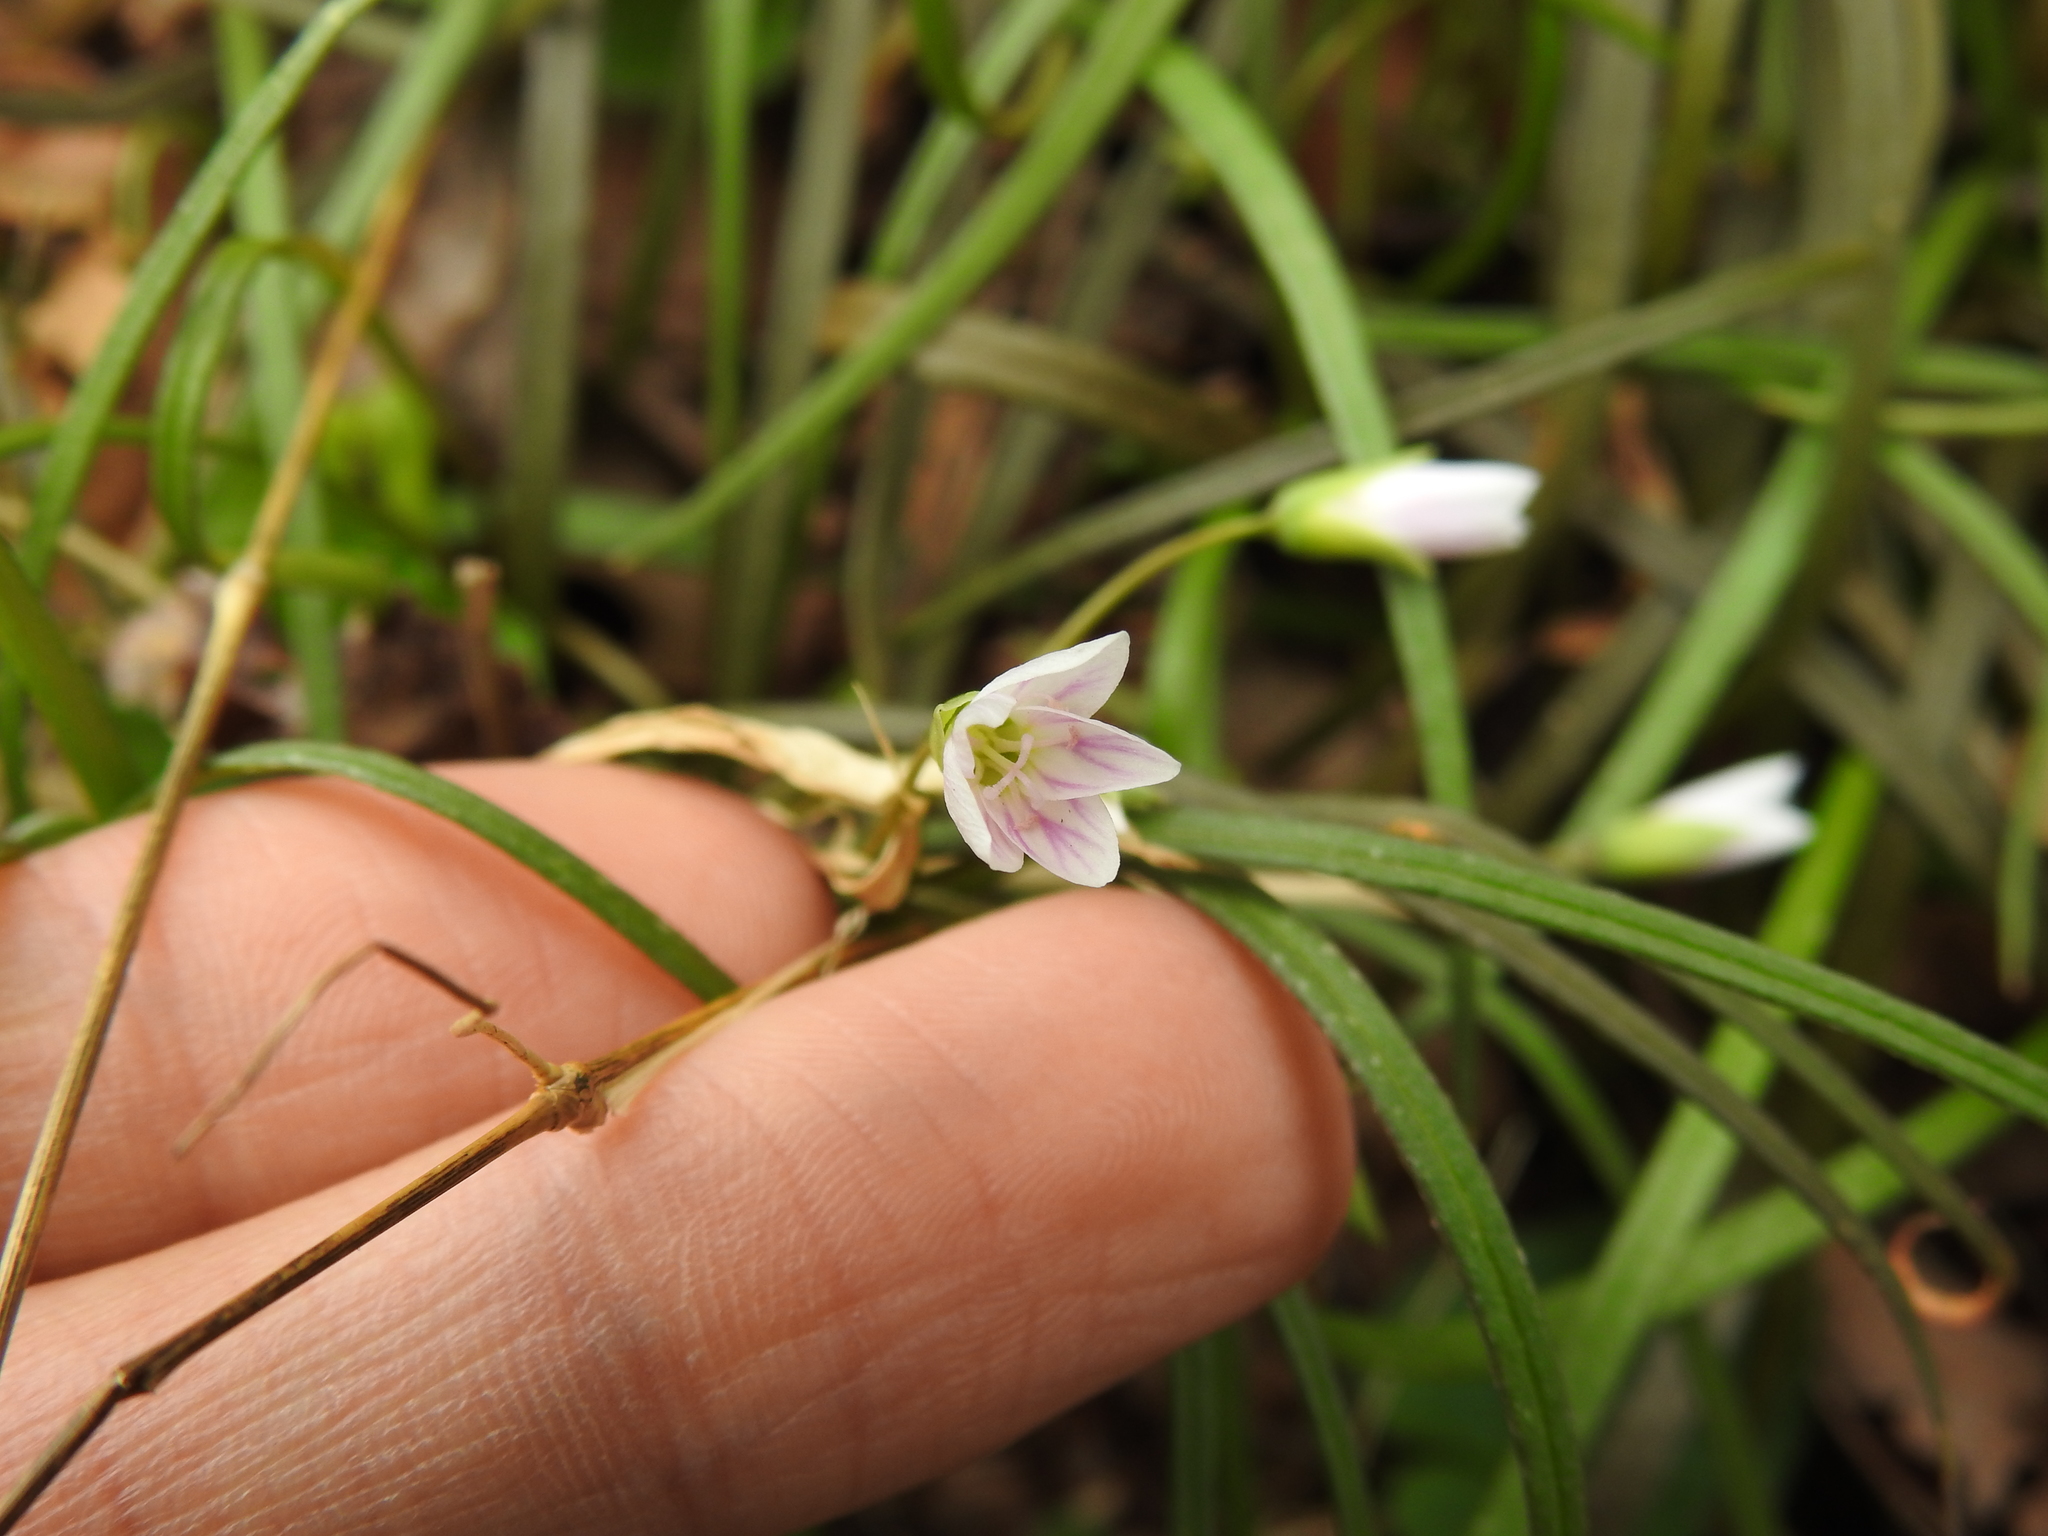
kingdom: Plantae
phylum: Tracheophyta
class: Magnoliopsida
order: Caryophyllales
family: Montiaceae
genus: Claytonia
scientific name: Claytonia virginica
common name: Virginia springbeauty
